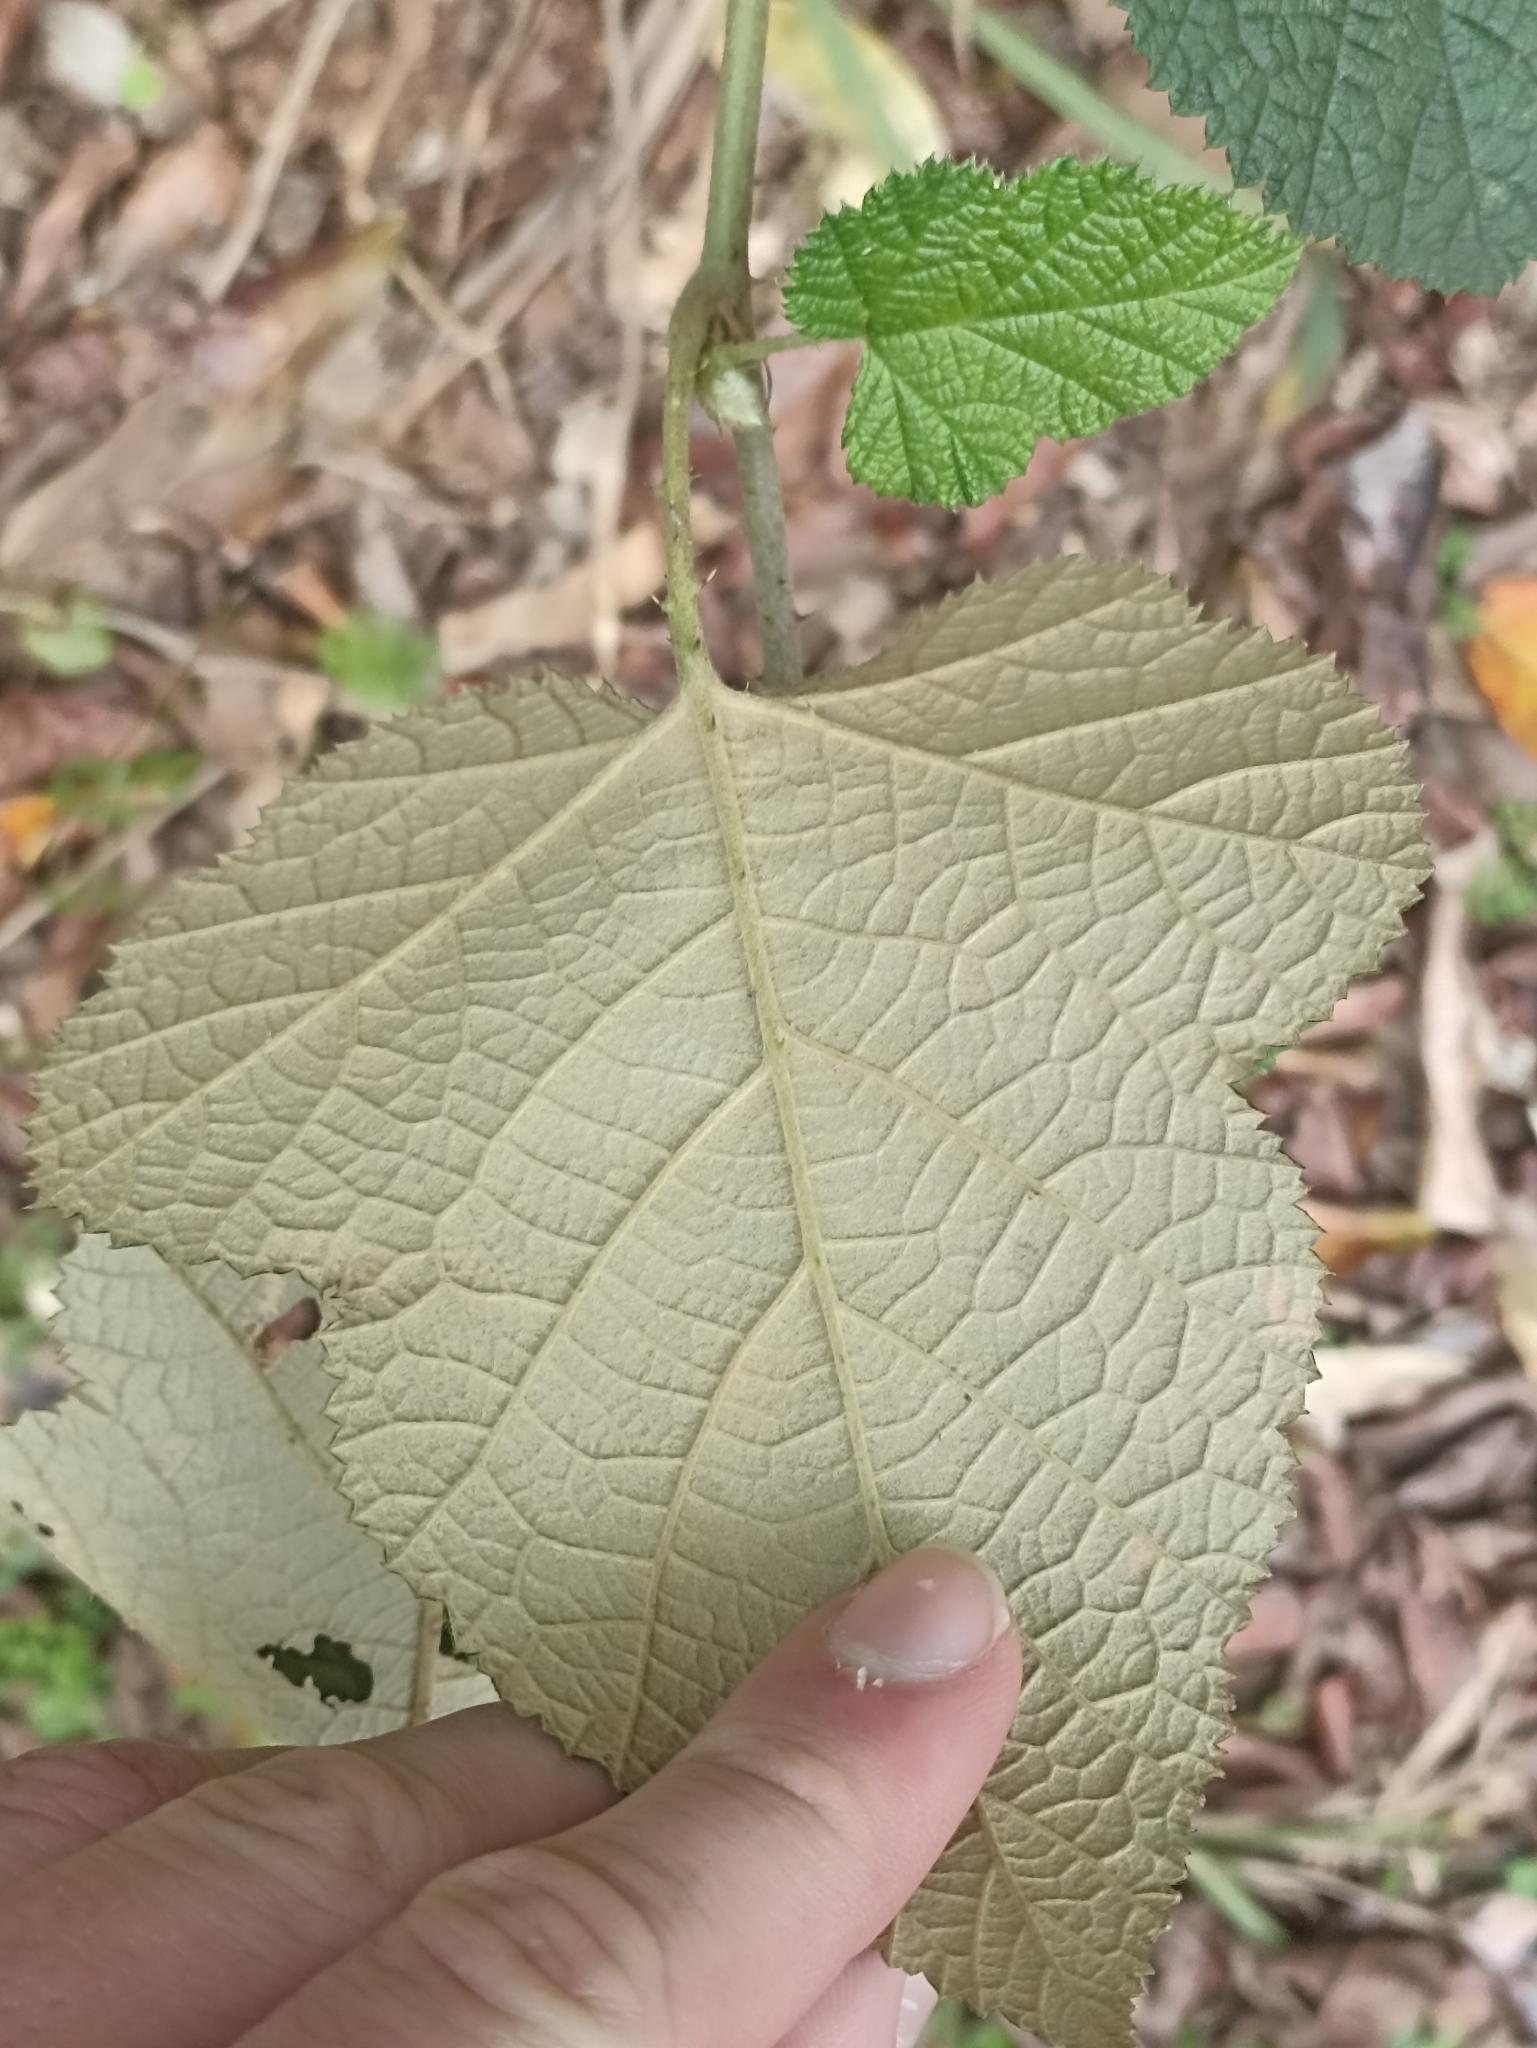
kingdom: Plantae
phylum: Tracheophyta
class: Magnoliopsida
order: Rosales
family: Rosaceae
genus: Rubus
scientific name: Rubus moluccanus
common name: Wild raspberry
